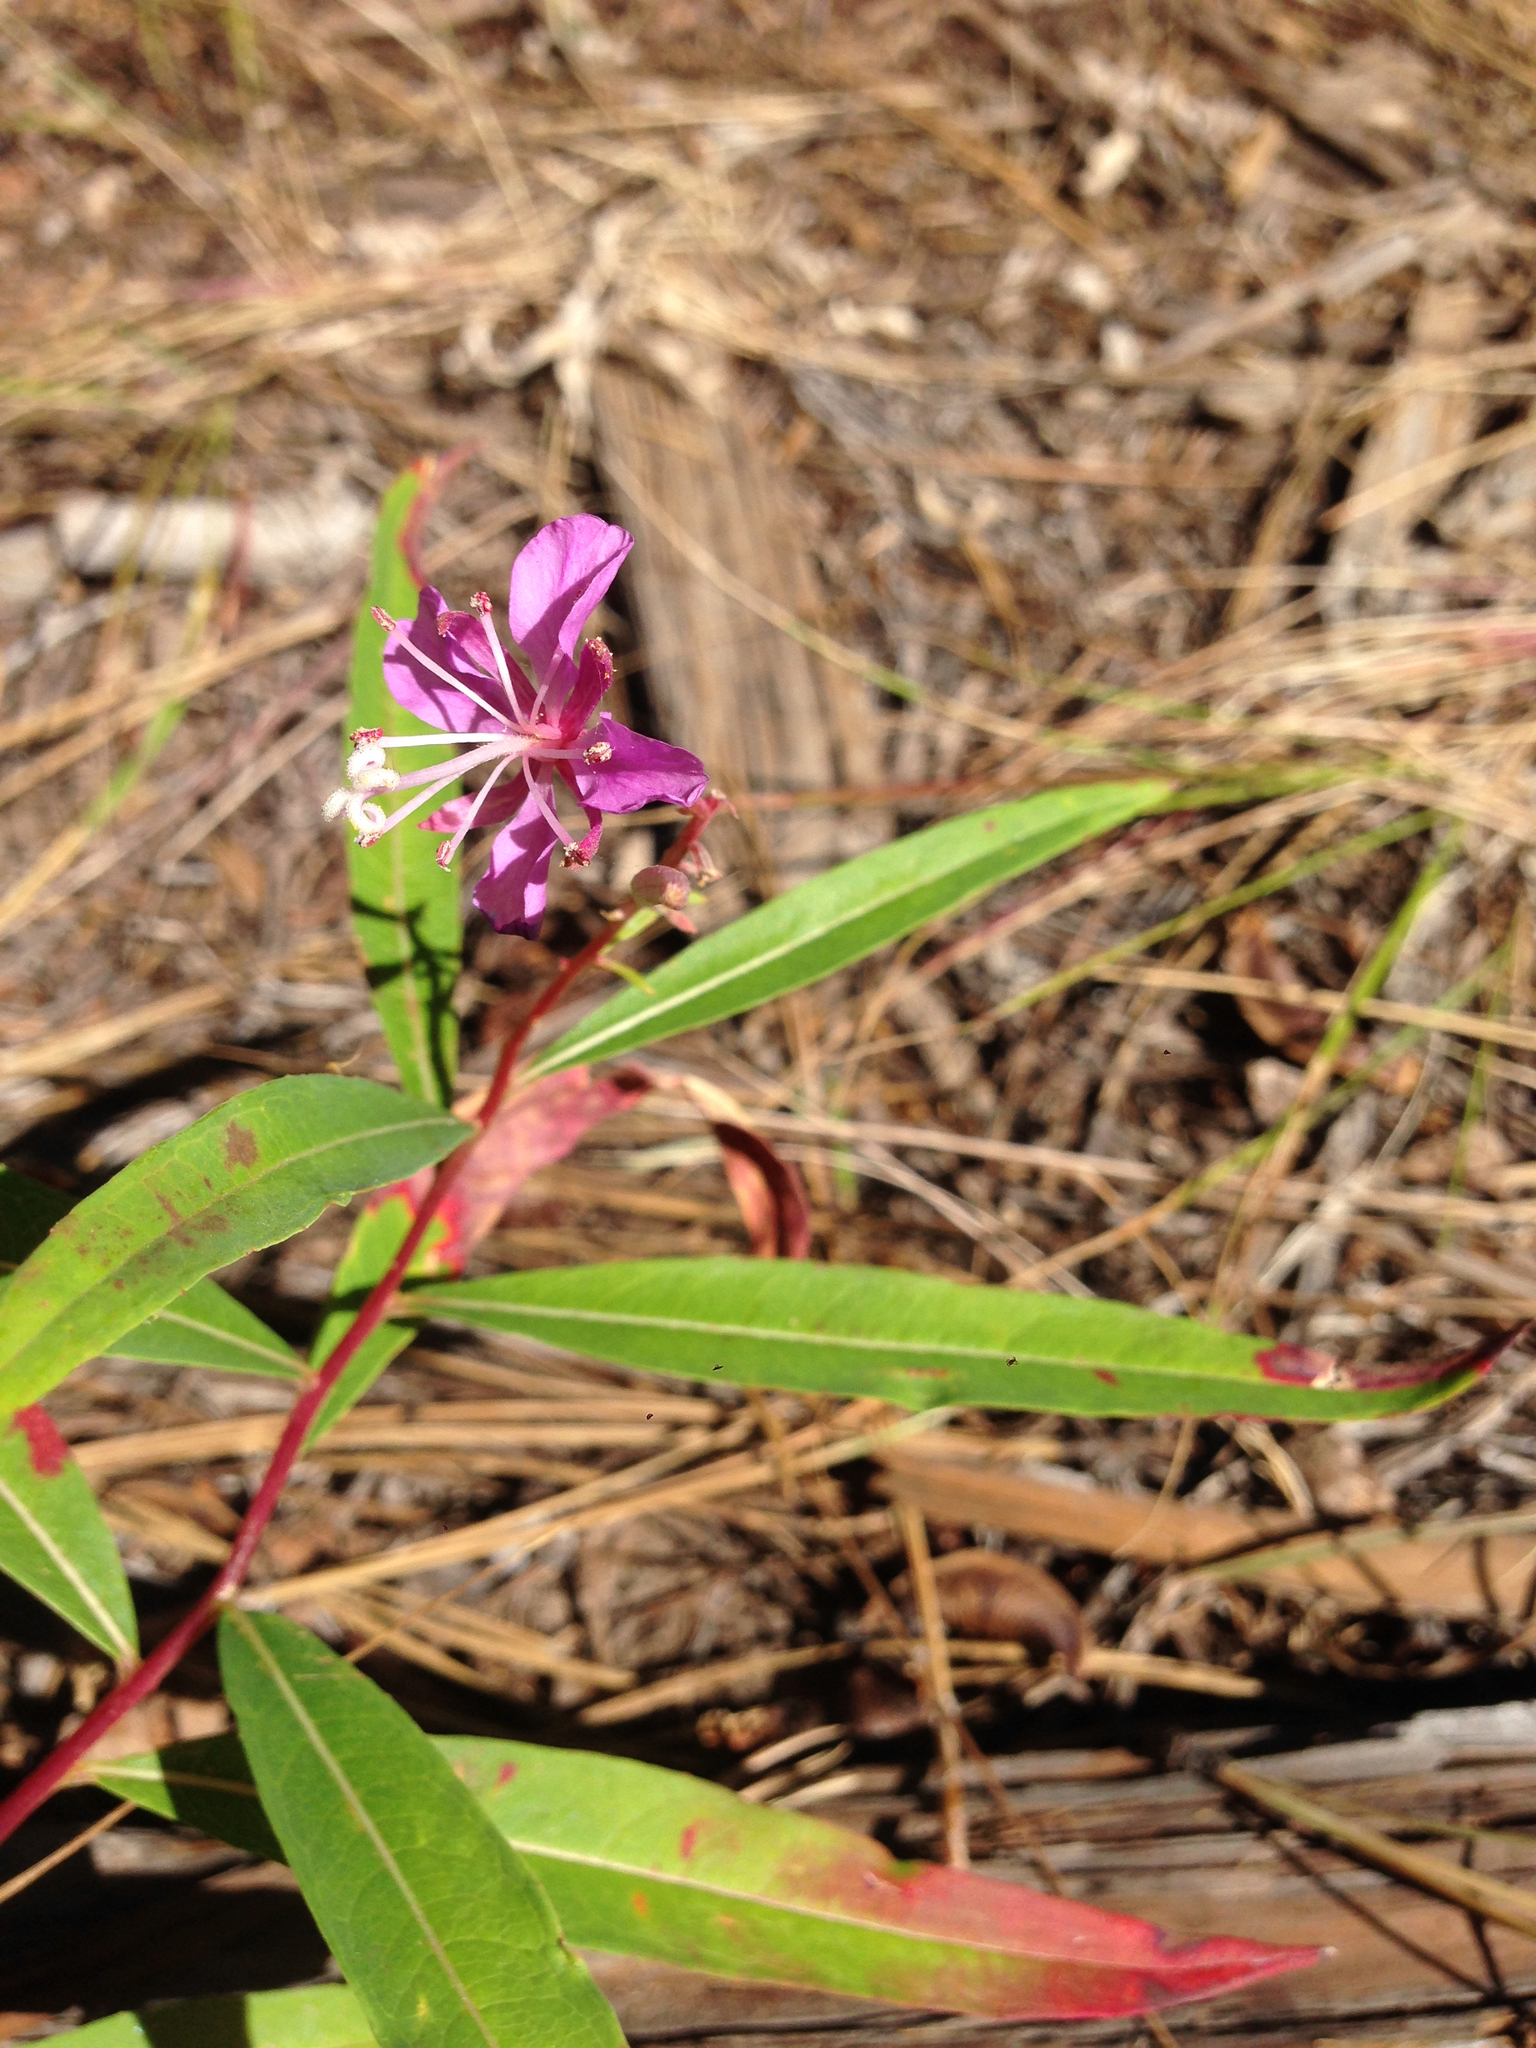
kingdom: Plantae
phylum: Tracheophyta
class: Magnoliopsida
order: Myrtales
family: Onagraceae
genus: Chamaenerion
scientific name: Chamaenerion angustifolium
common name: Fireweed
